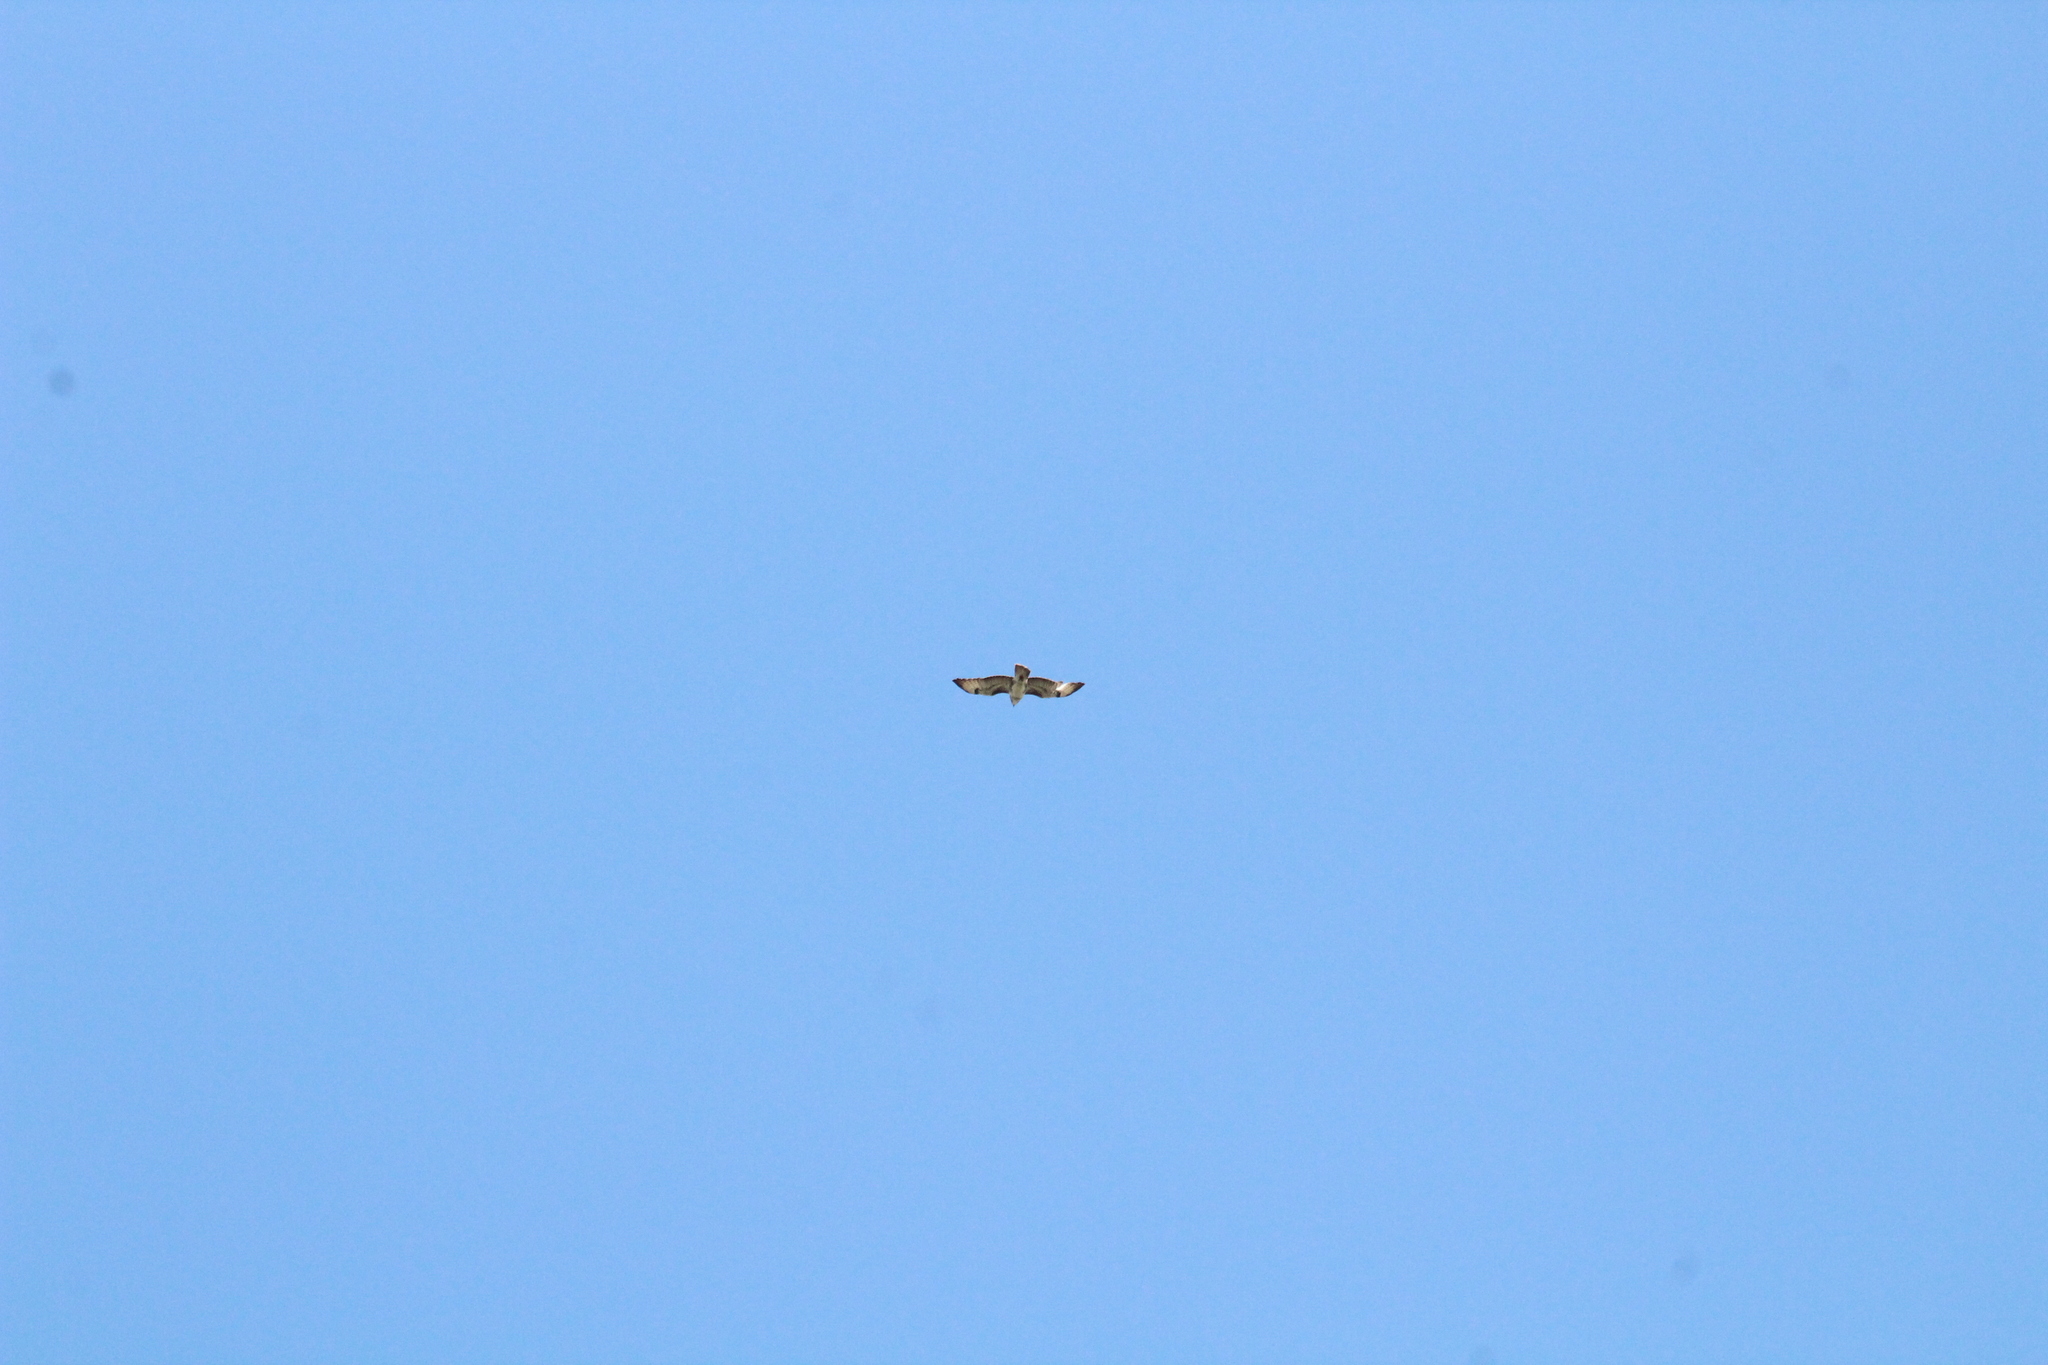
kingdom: Animalia
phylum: Chordata
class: Aves
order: Accipitriformes
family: Accipitridae
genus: Buteo
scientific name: Buteo buteo
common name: Common buzzard
